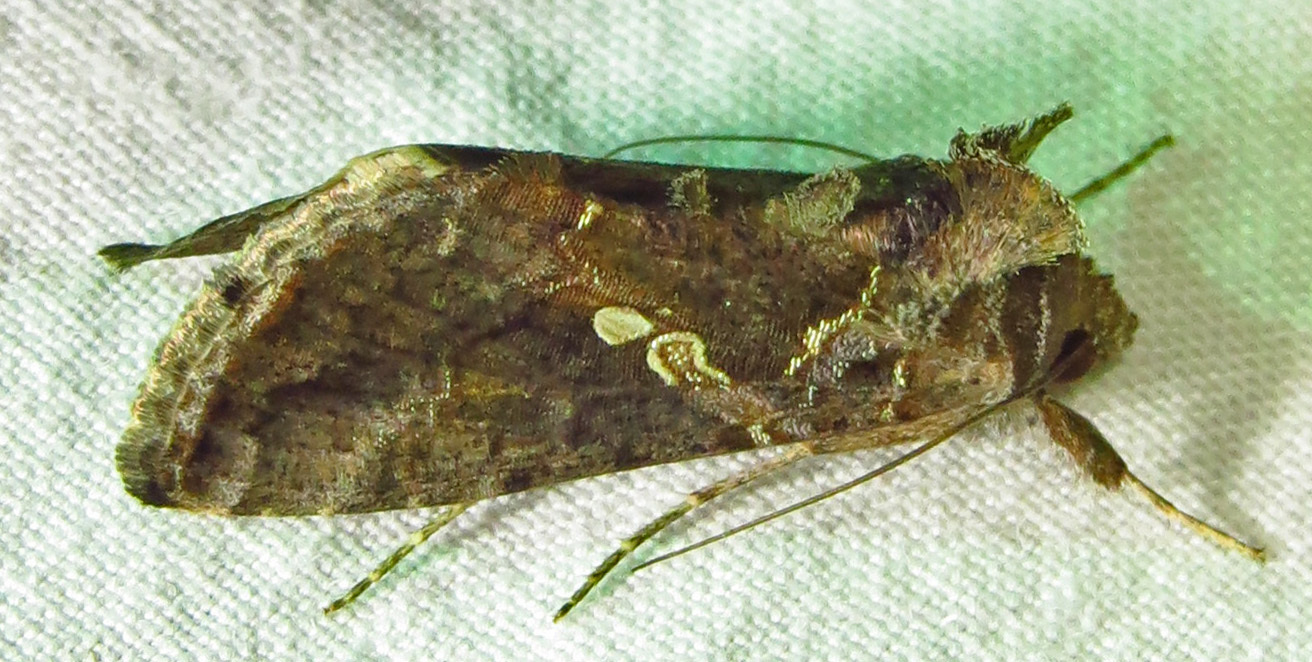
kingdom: Animalia
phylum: Arthropoda
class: Insecta
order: Lepidoptera
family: Noctuidae
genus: Chrysodeixis
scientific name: Chrysodeixis includens
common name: Cutworm moth
